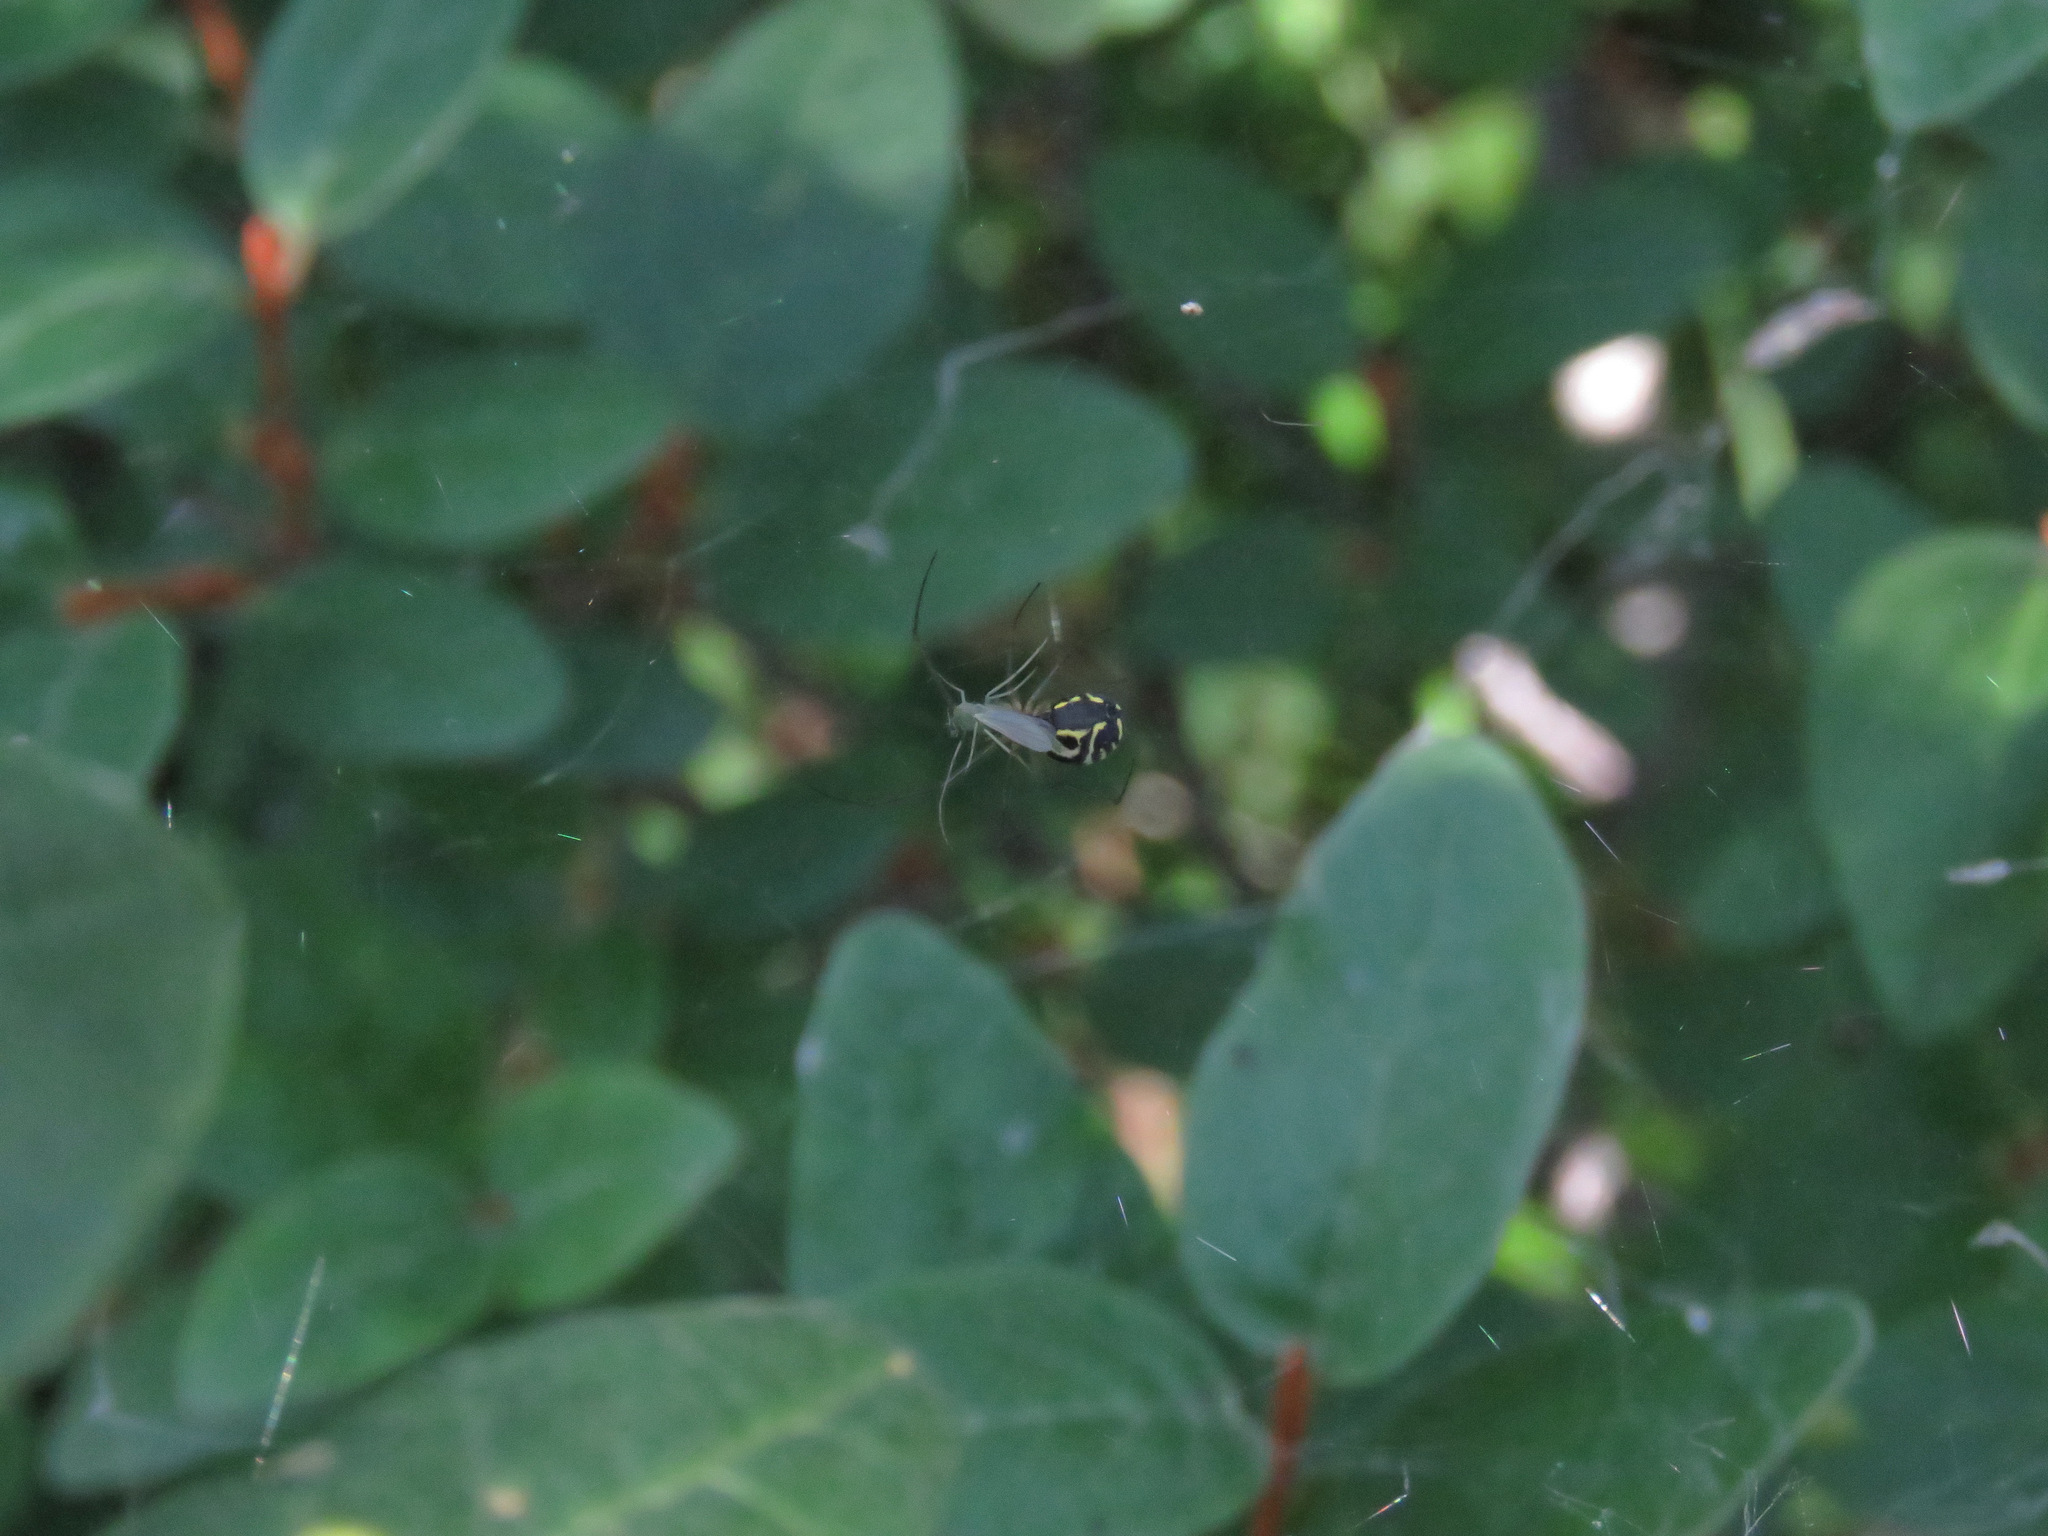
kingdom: Animalia
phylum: Arthropoda
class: Arachnida
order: Araneae
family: Linyphiidae
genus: Neriene
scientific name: Neriene radiata
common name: Filmy dome spider
